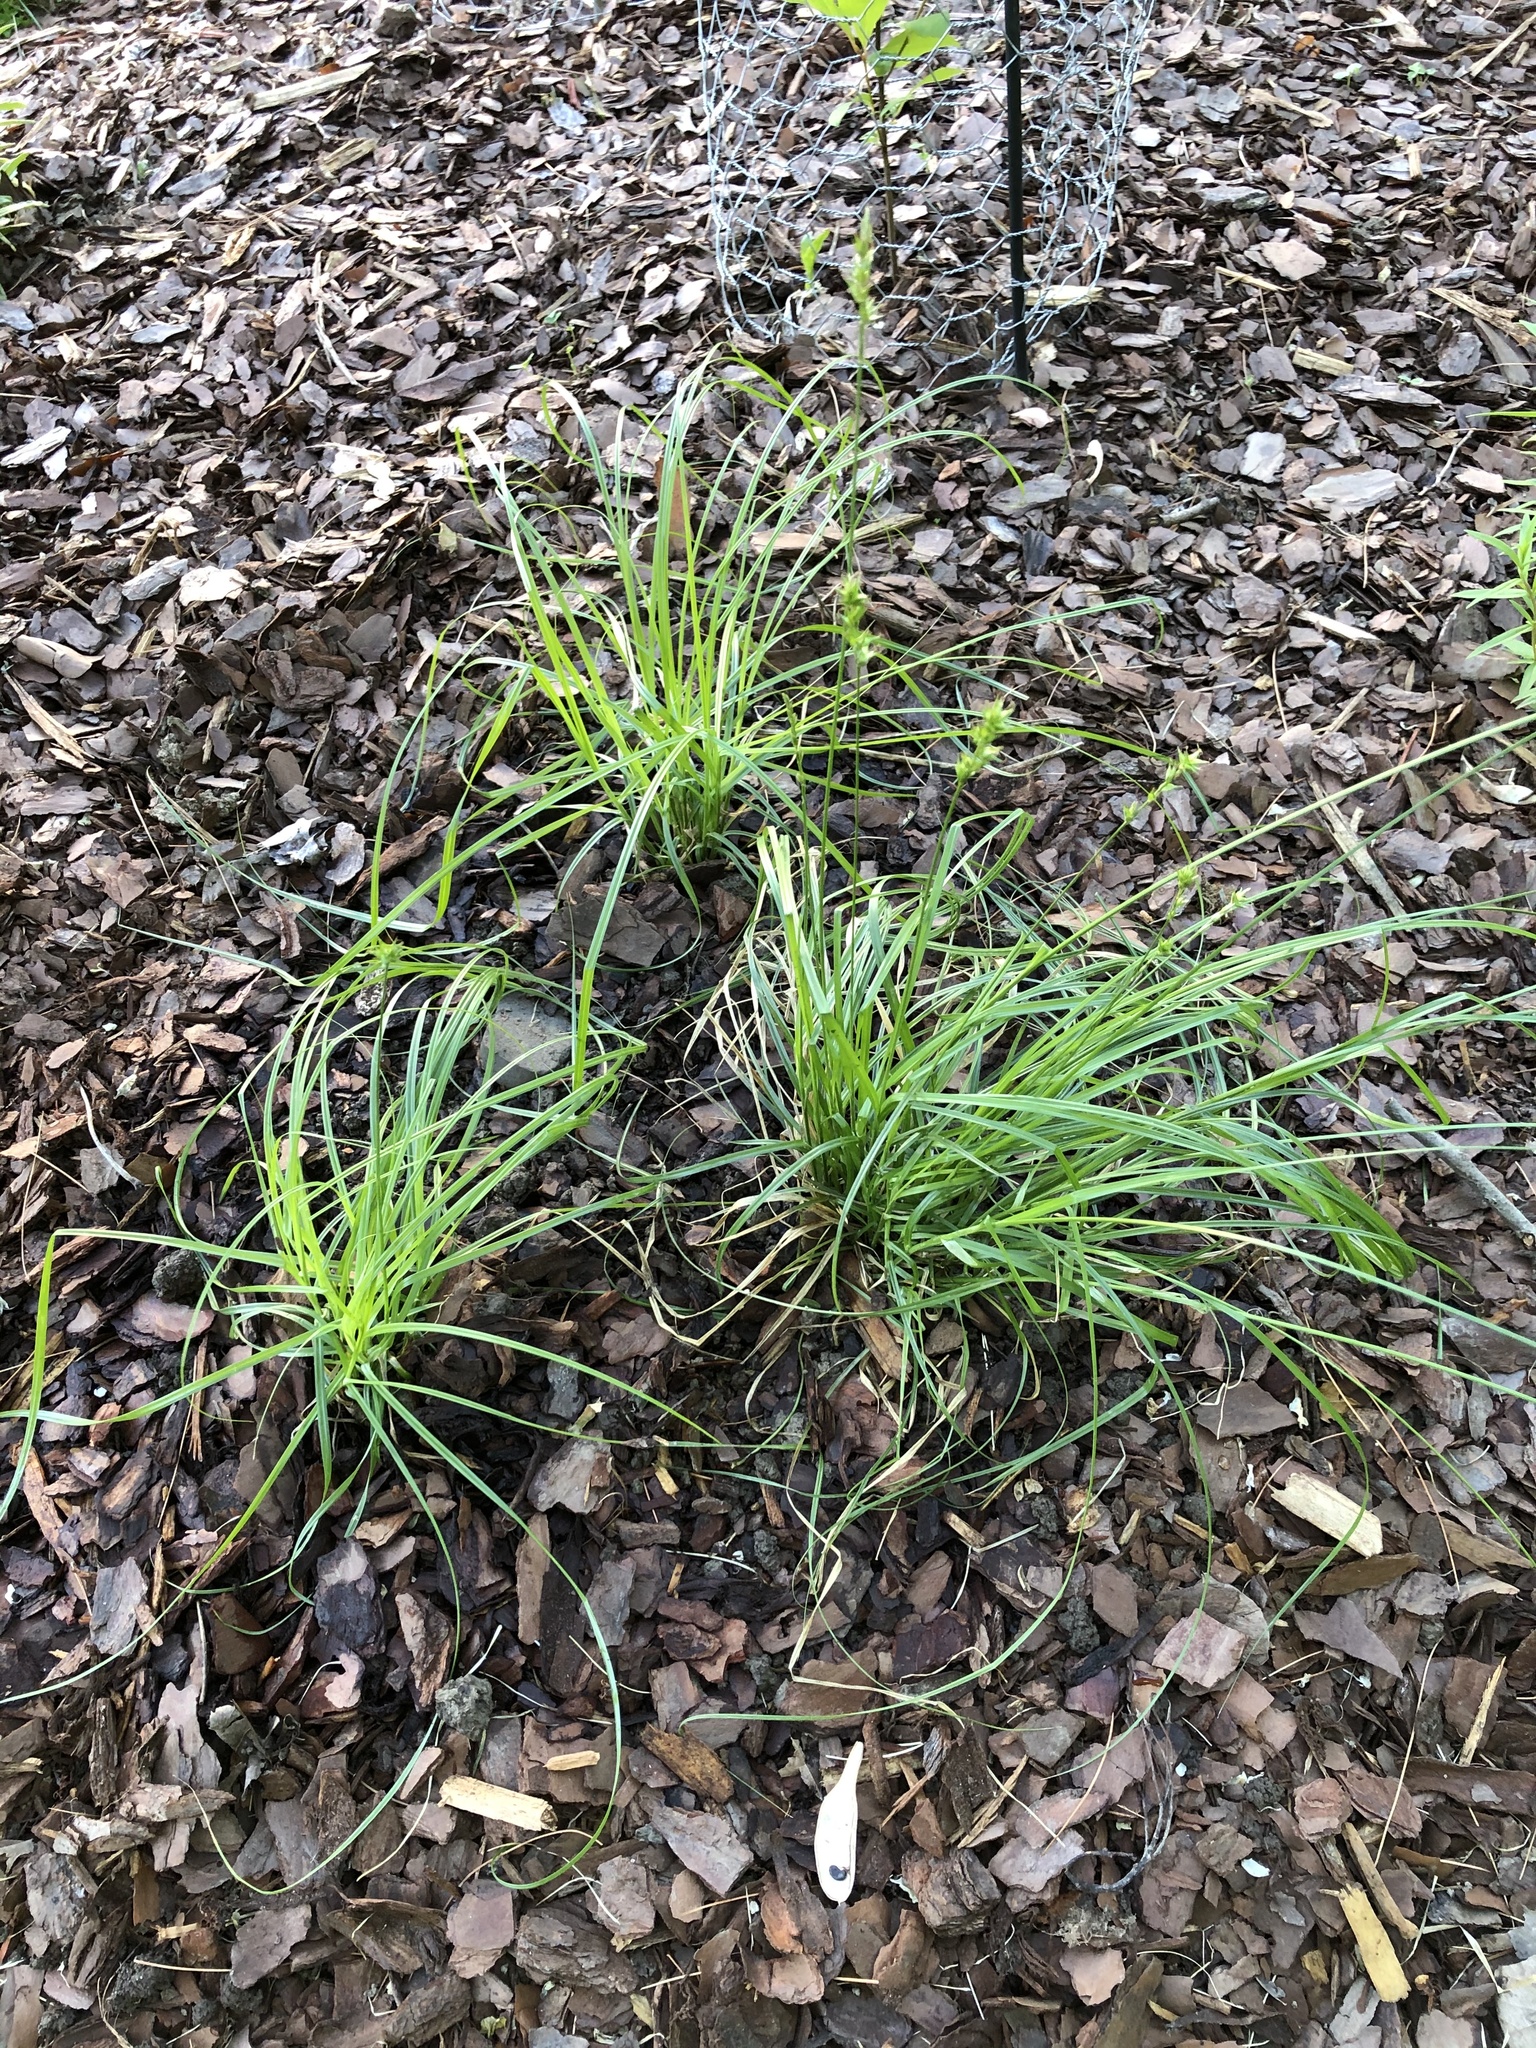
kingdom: Plantae
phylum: Tracheophyta
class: Liliopsida
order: Poales
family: Cyperaceae
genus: Carex
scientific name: Carex spicata
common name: Spiked sedge
